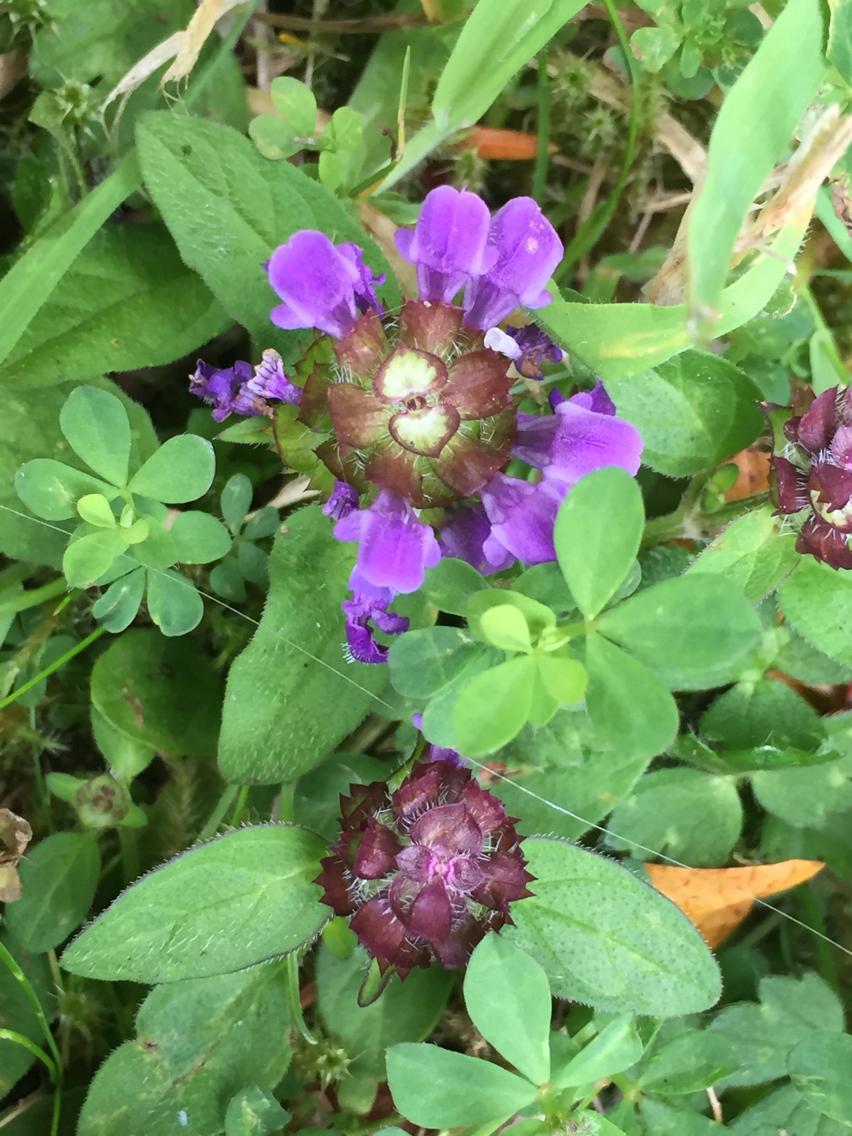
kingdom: Plantae
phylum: Tracheophyta
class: Magnoliopsida
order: Lamiales
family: Lamiaceae
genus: Prunella
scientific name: Prunella vulgaris
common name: Heal-all
